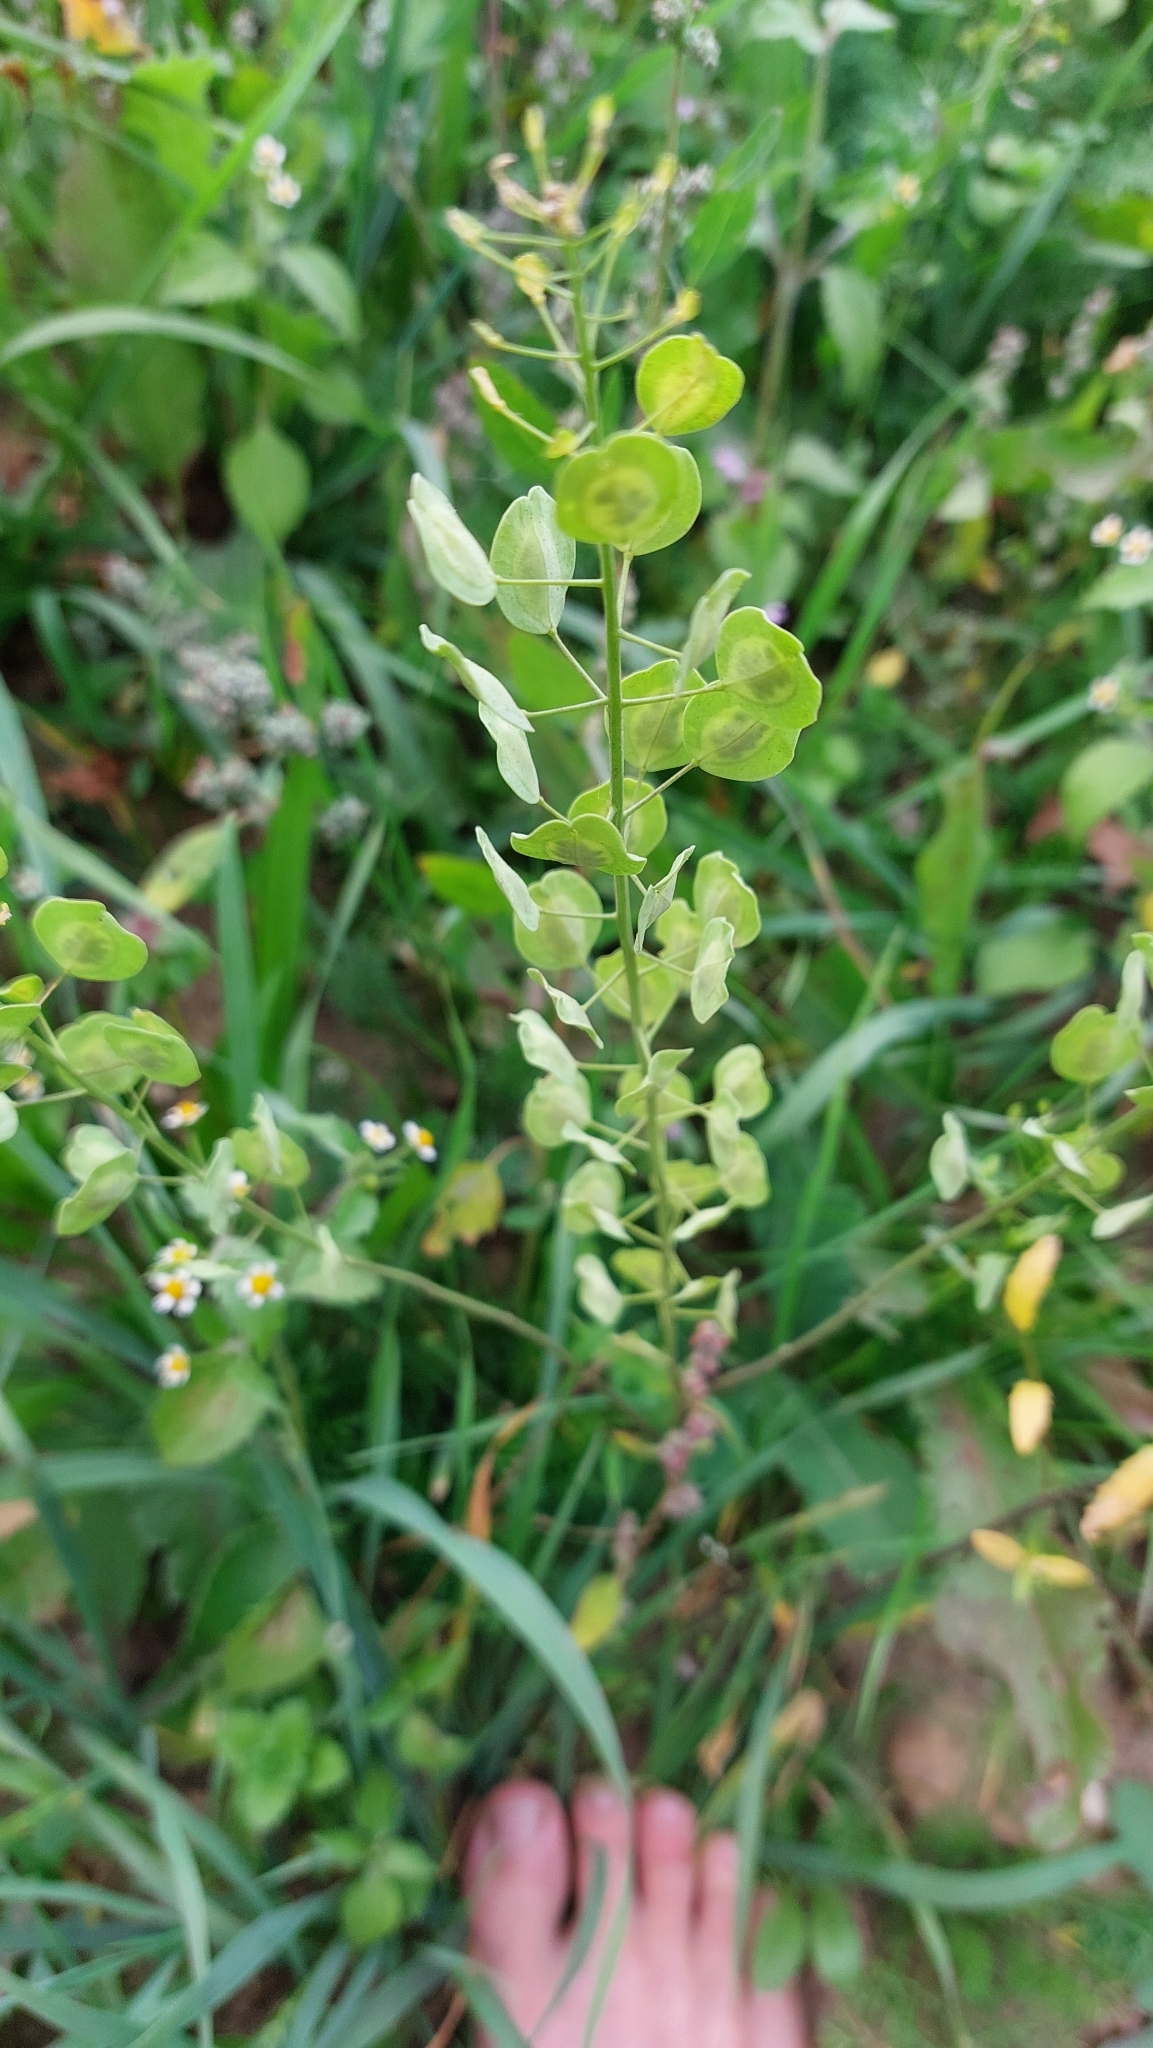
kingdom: Plantae
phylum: Tracheophyta
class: Magnoliopsida
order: Brassicales
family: Brassicaceae
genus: Thlaspi
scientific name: Thlaspi arvense
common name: Field pennycress
